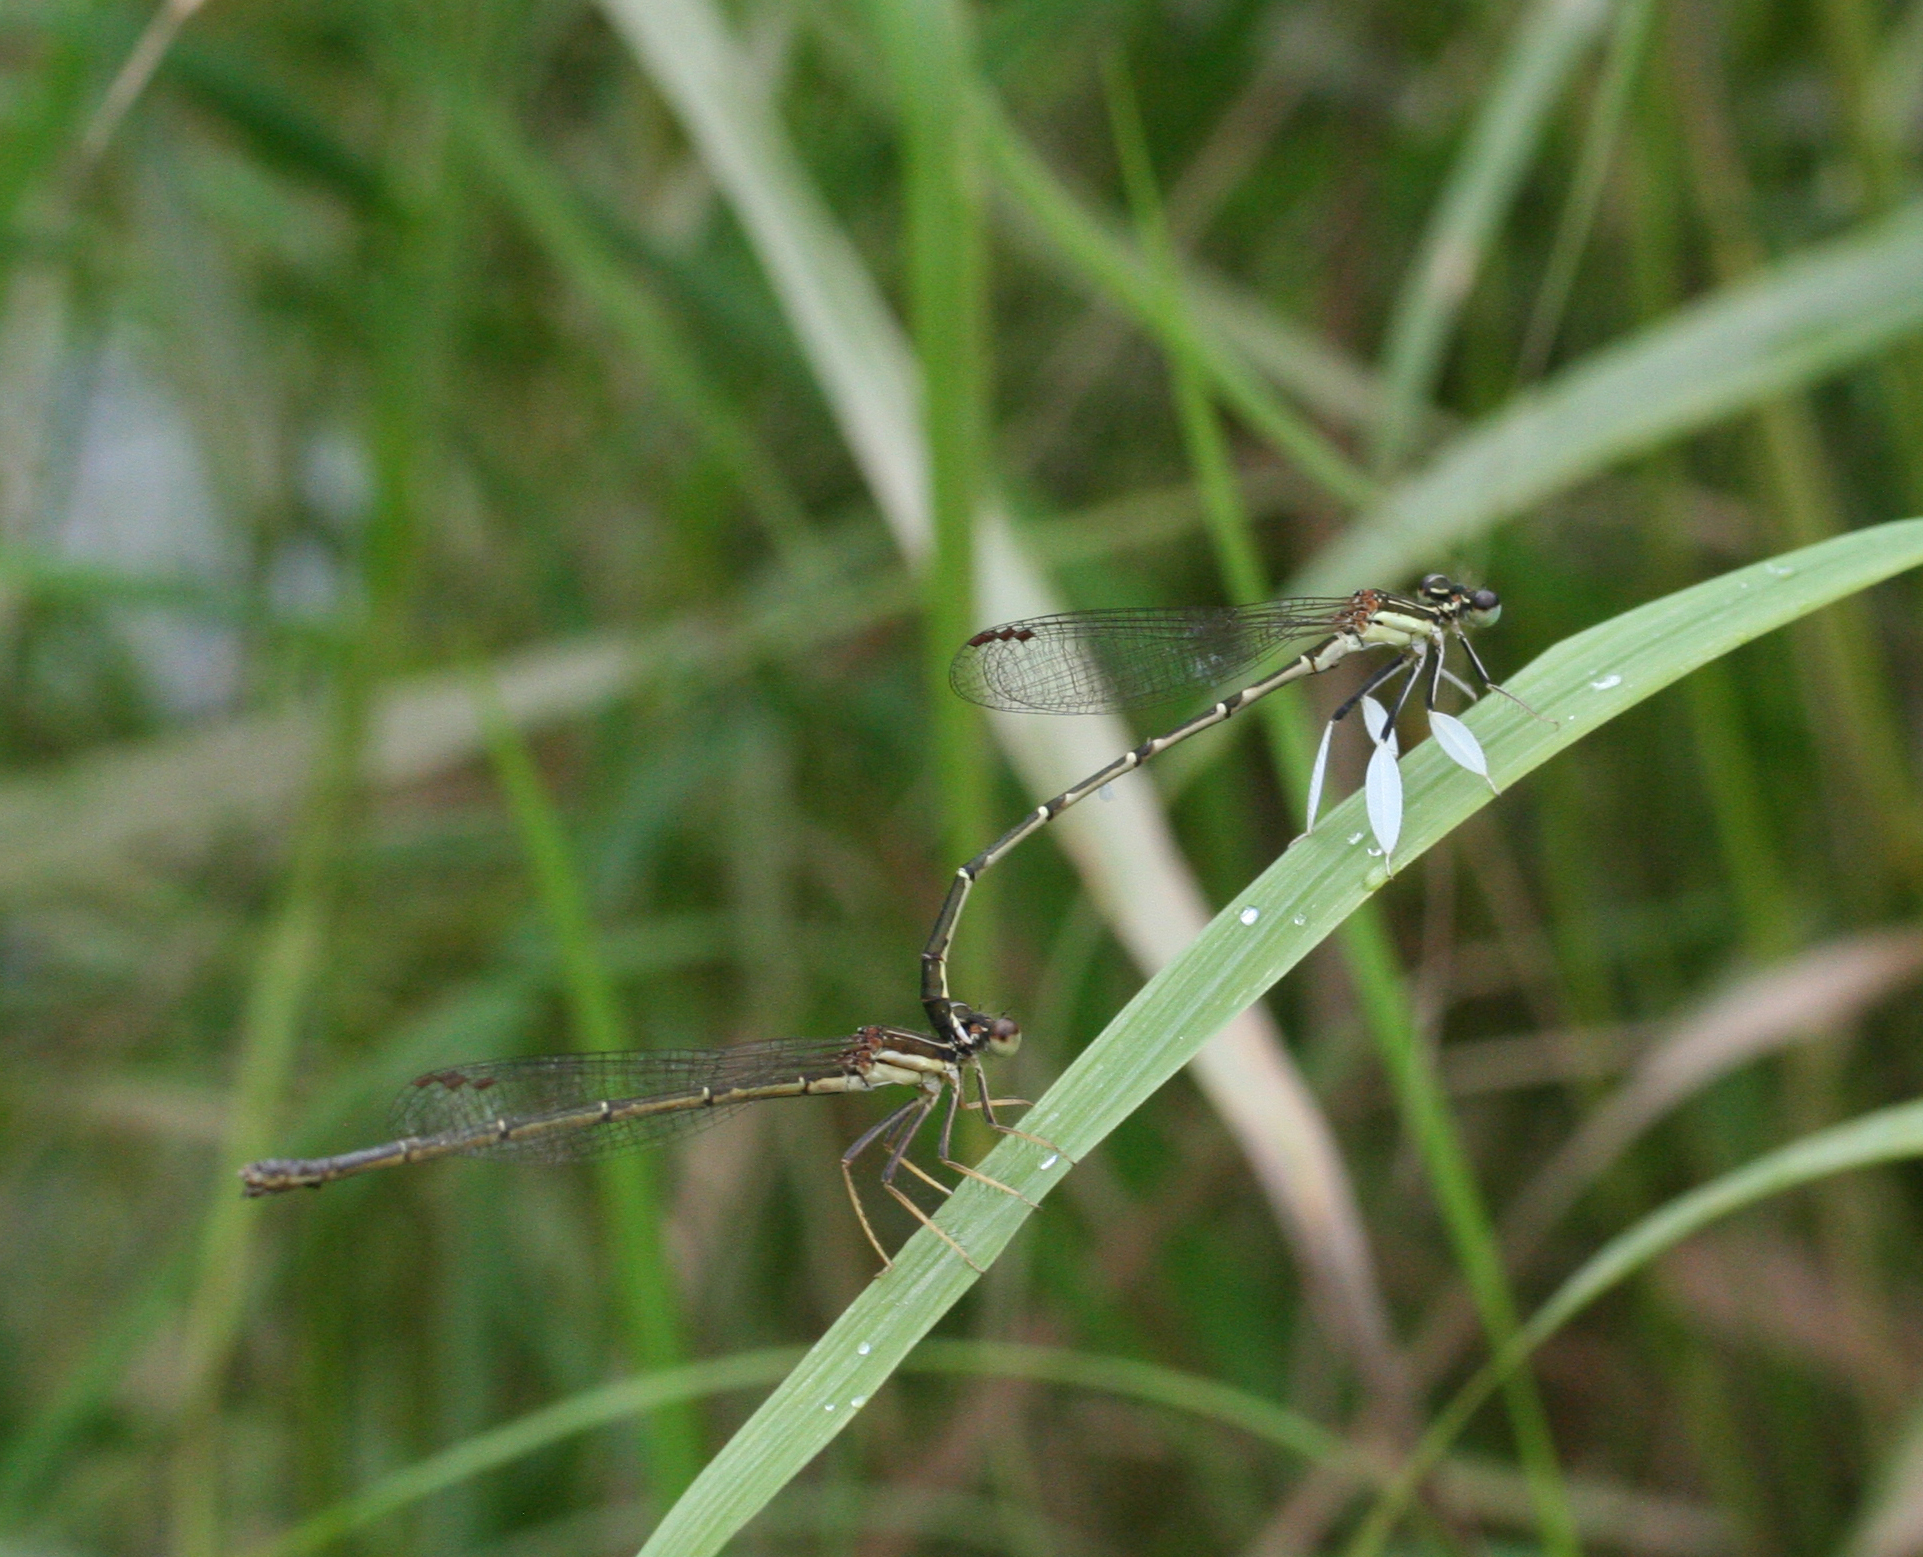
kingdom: Animalia
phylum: Arthropoda
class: Insecta
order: Odonata
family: Platycnemididae
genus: Platycnemis
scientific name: Platycnemis phyllopoda
